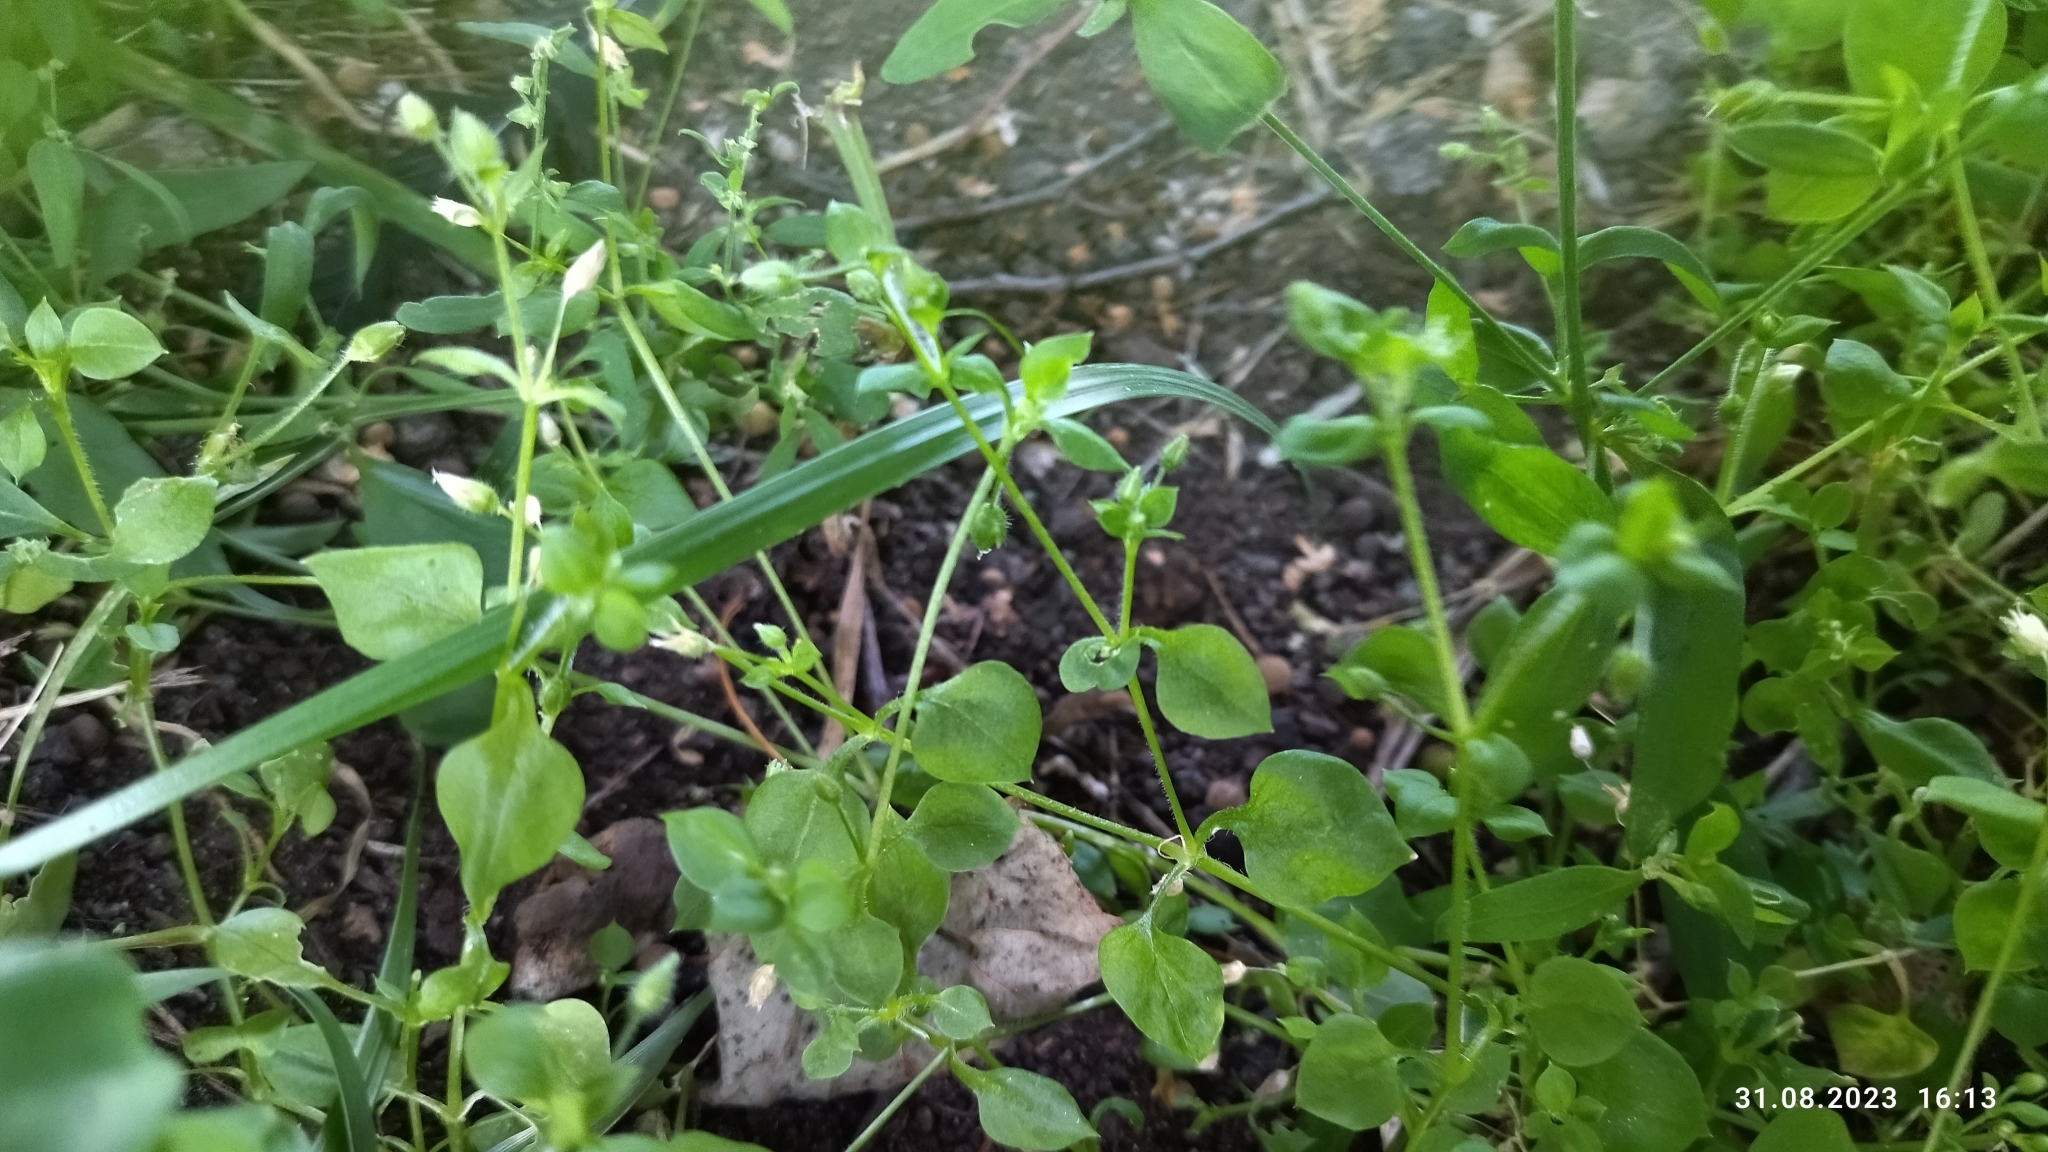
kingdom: Plantae
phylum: Tracheophyta
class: Magnoliopsida
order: Caryophyllales
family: Caryophyllaceae
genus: Stellaria
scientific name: Stellaria media
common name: Common chickweed
